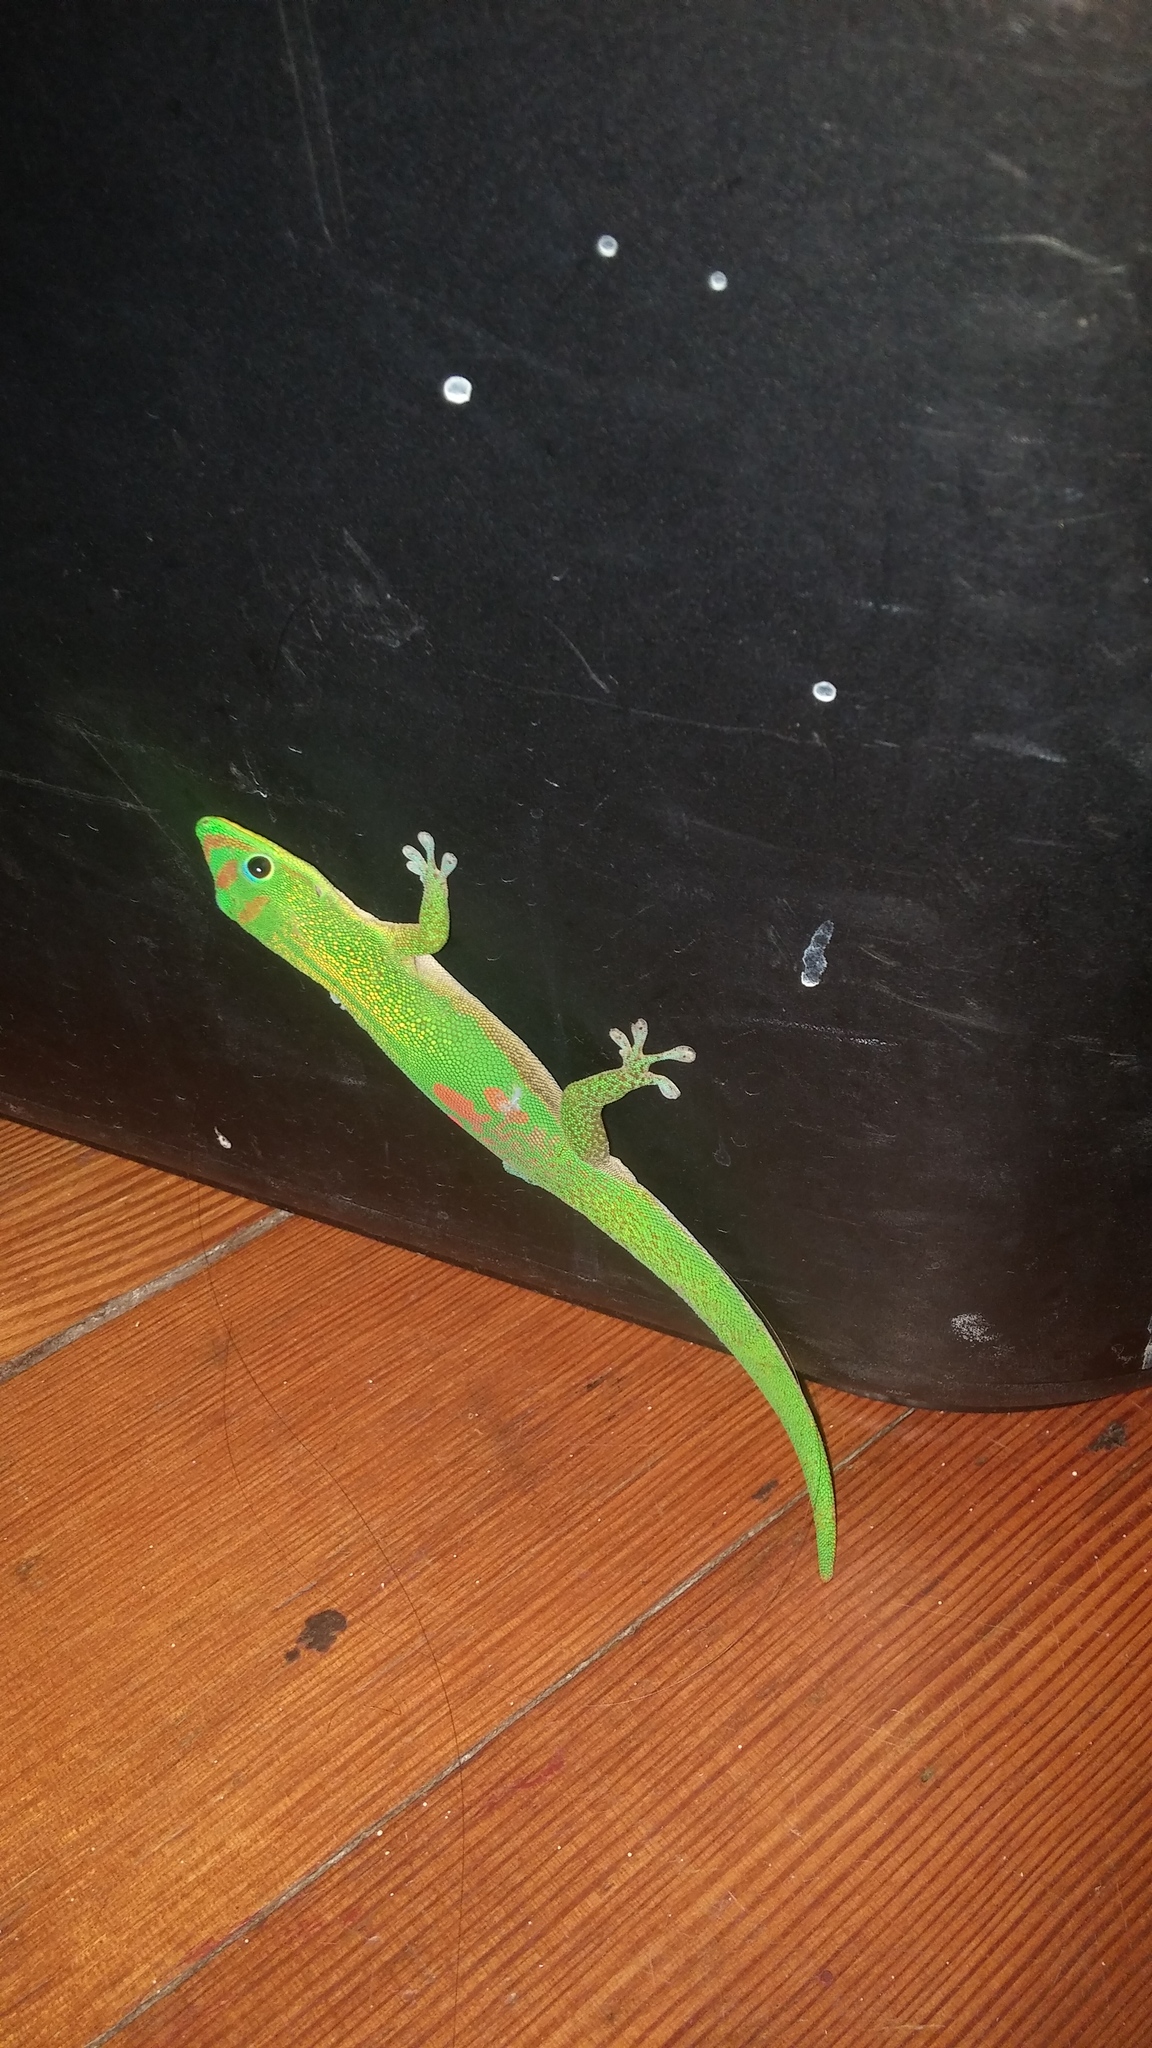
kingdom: Animalia
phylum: Chordata
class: Squamata
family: Gekkonidae
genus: Phelsuma
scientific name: Phelsuma laticauda
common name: Gold dust day gecko
